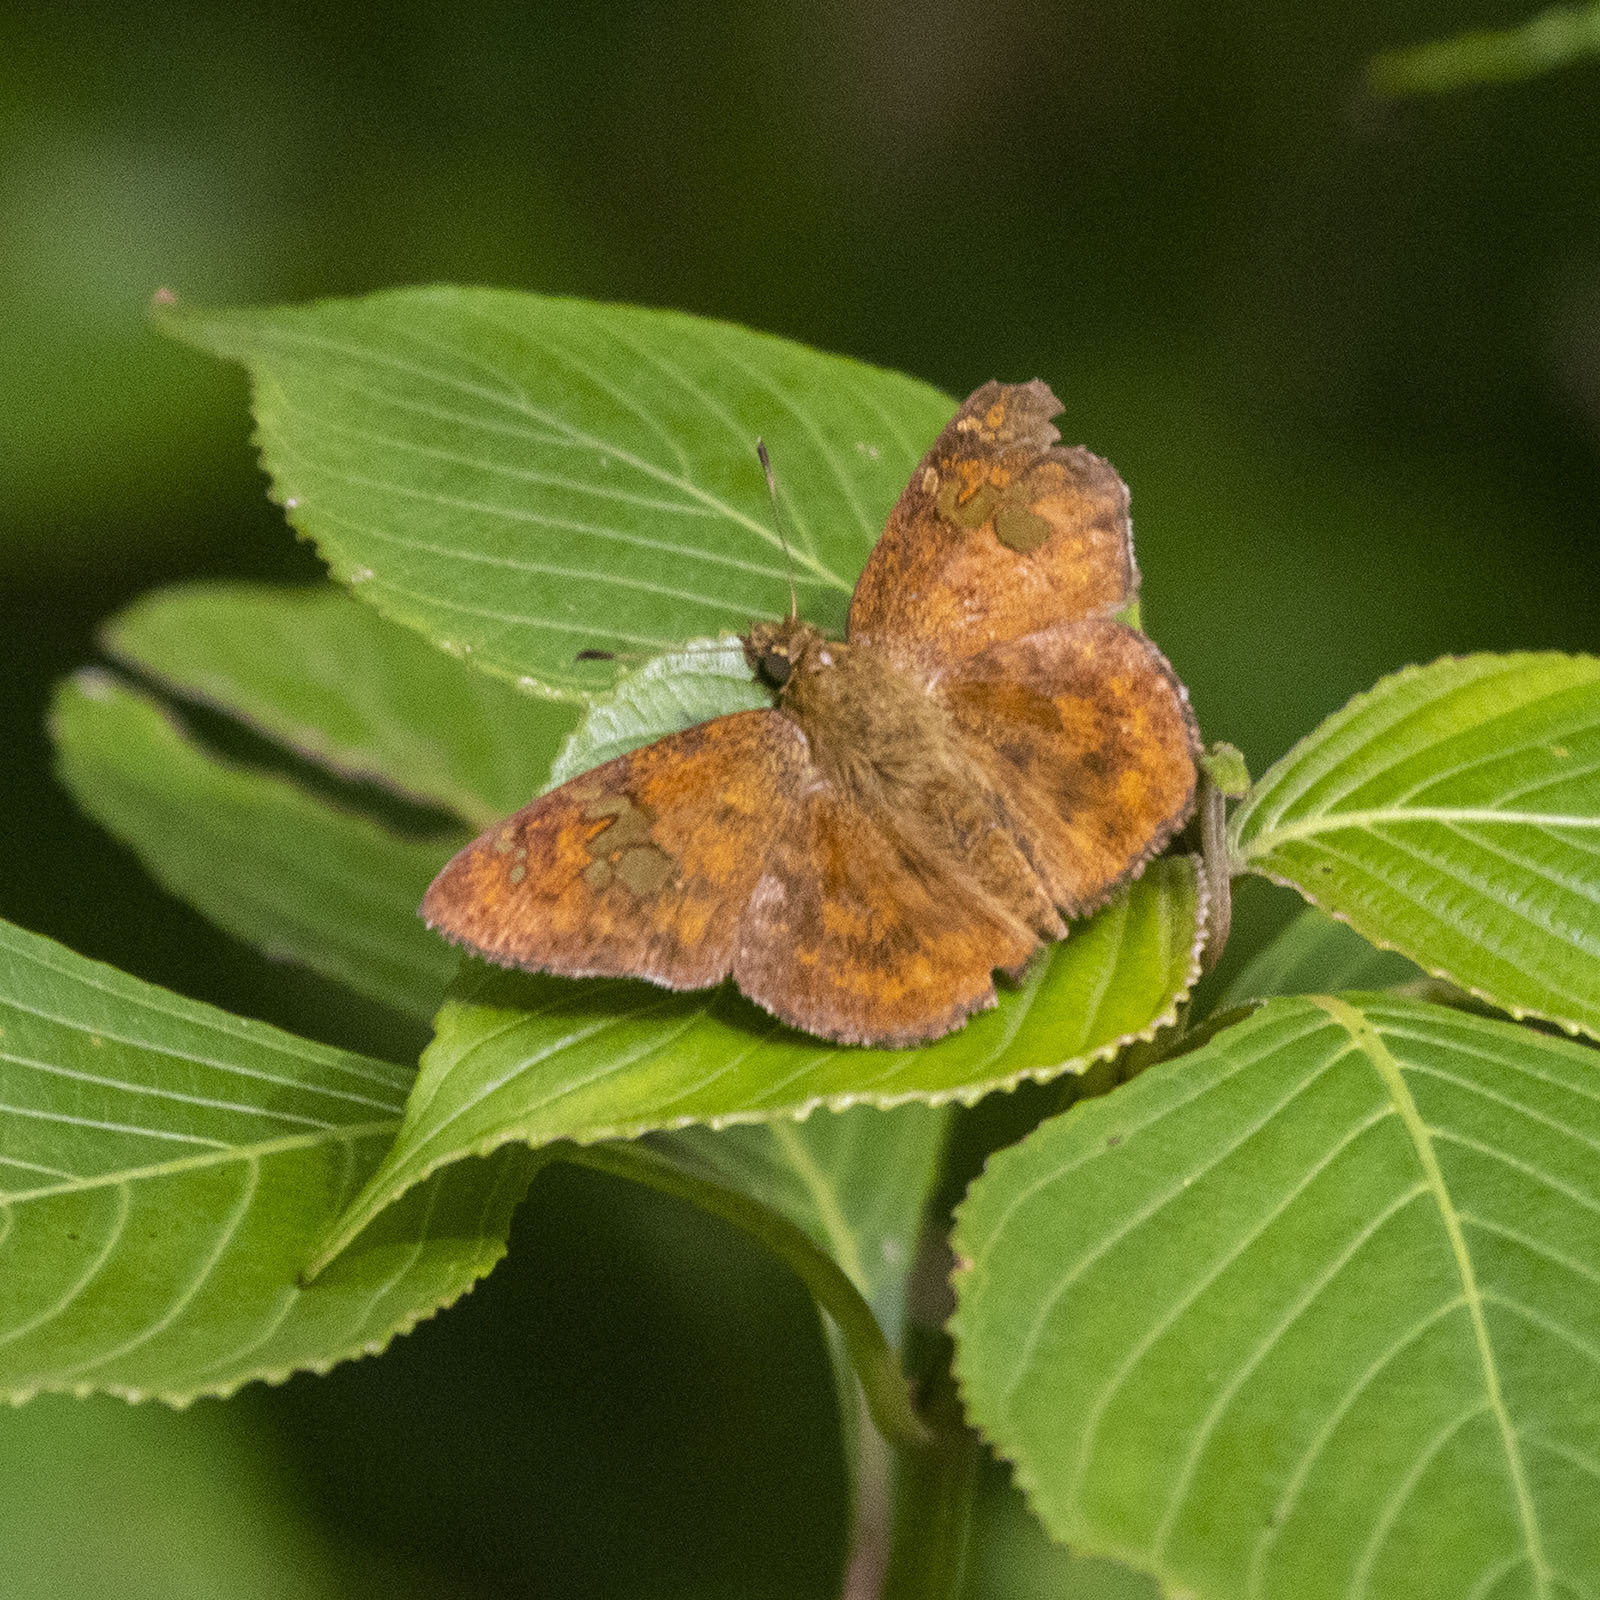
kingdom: Animalia
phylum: Arthropoda
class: Insecta
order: Lepidoptera
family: Hesperiidae
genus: Pseudocoladenia
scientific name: Pseudocoladenia dan
